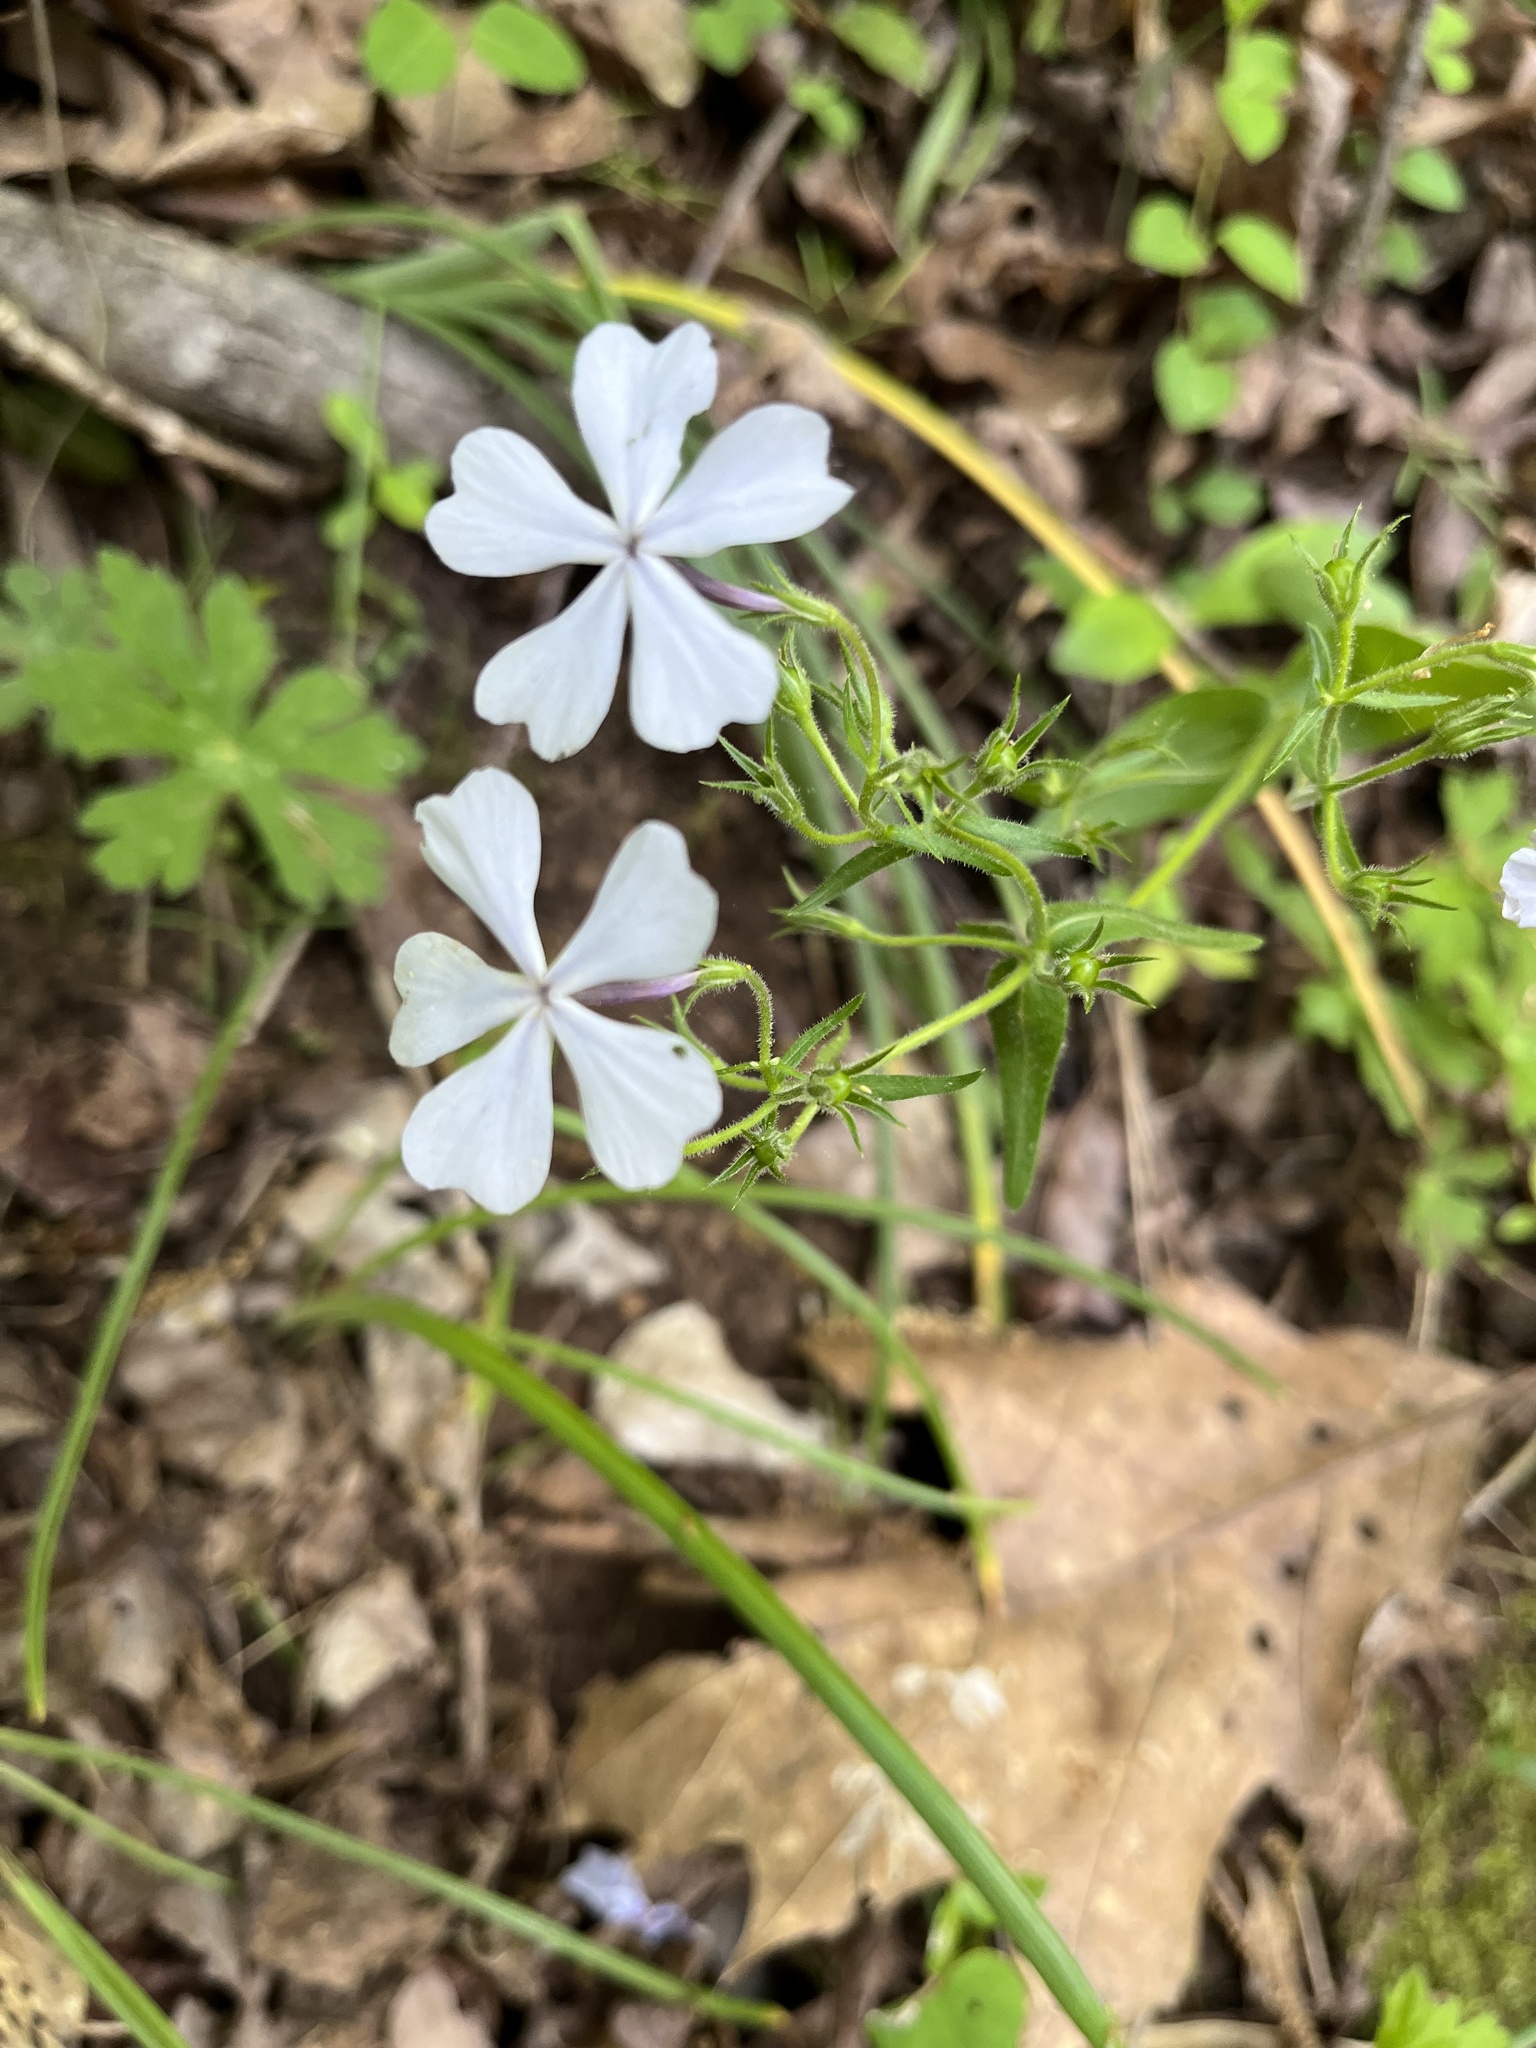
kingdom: Plantae
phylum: Tracheophyta
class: Magnoliopsida
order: Ericales
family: Polemoniaceae
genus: Phlox
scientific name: Phlox divaricata
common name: Blue phlox
